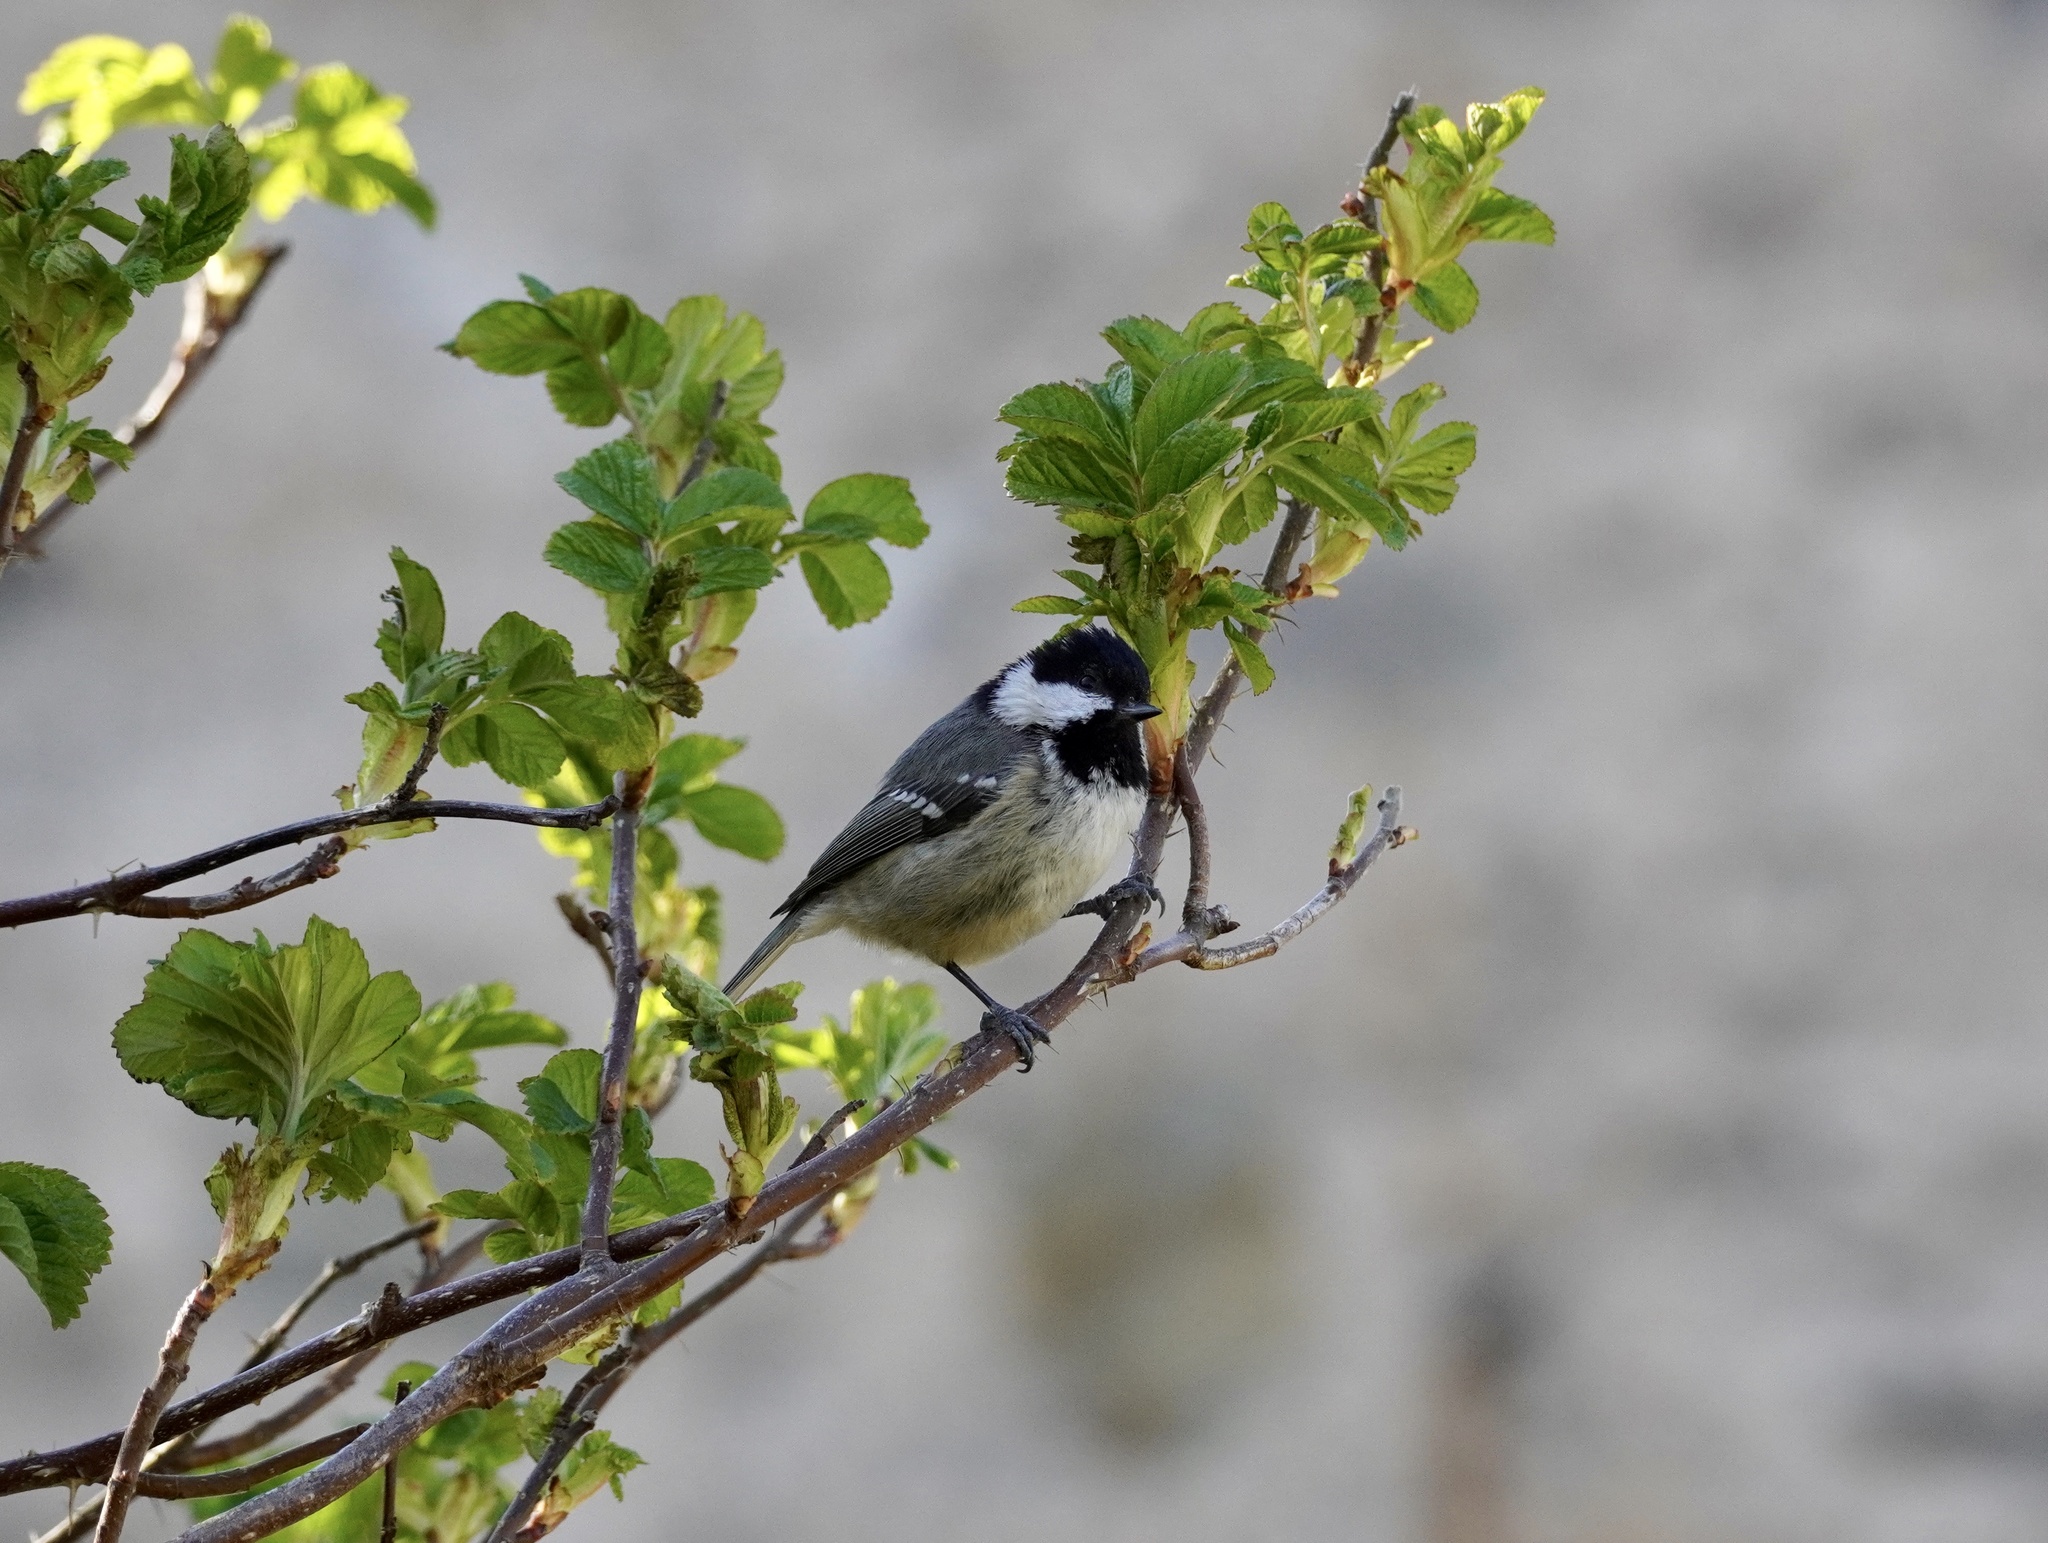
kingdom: Animalia
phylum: Chordata
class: Aves
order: Passeriformes
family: Paridae
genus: Periparus
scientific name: Periparus ater
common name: Coal tit
